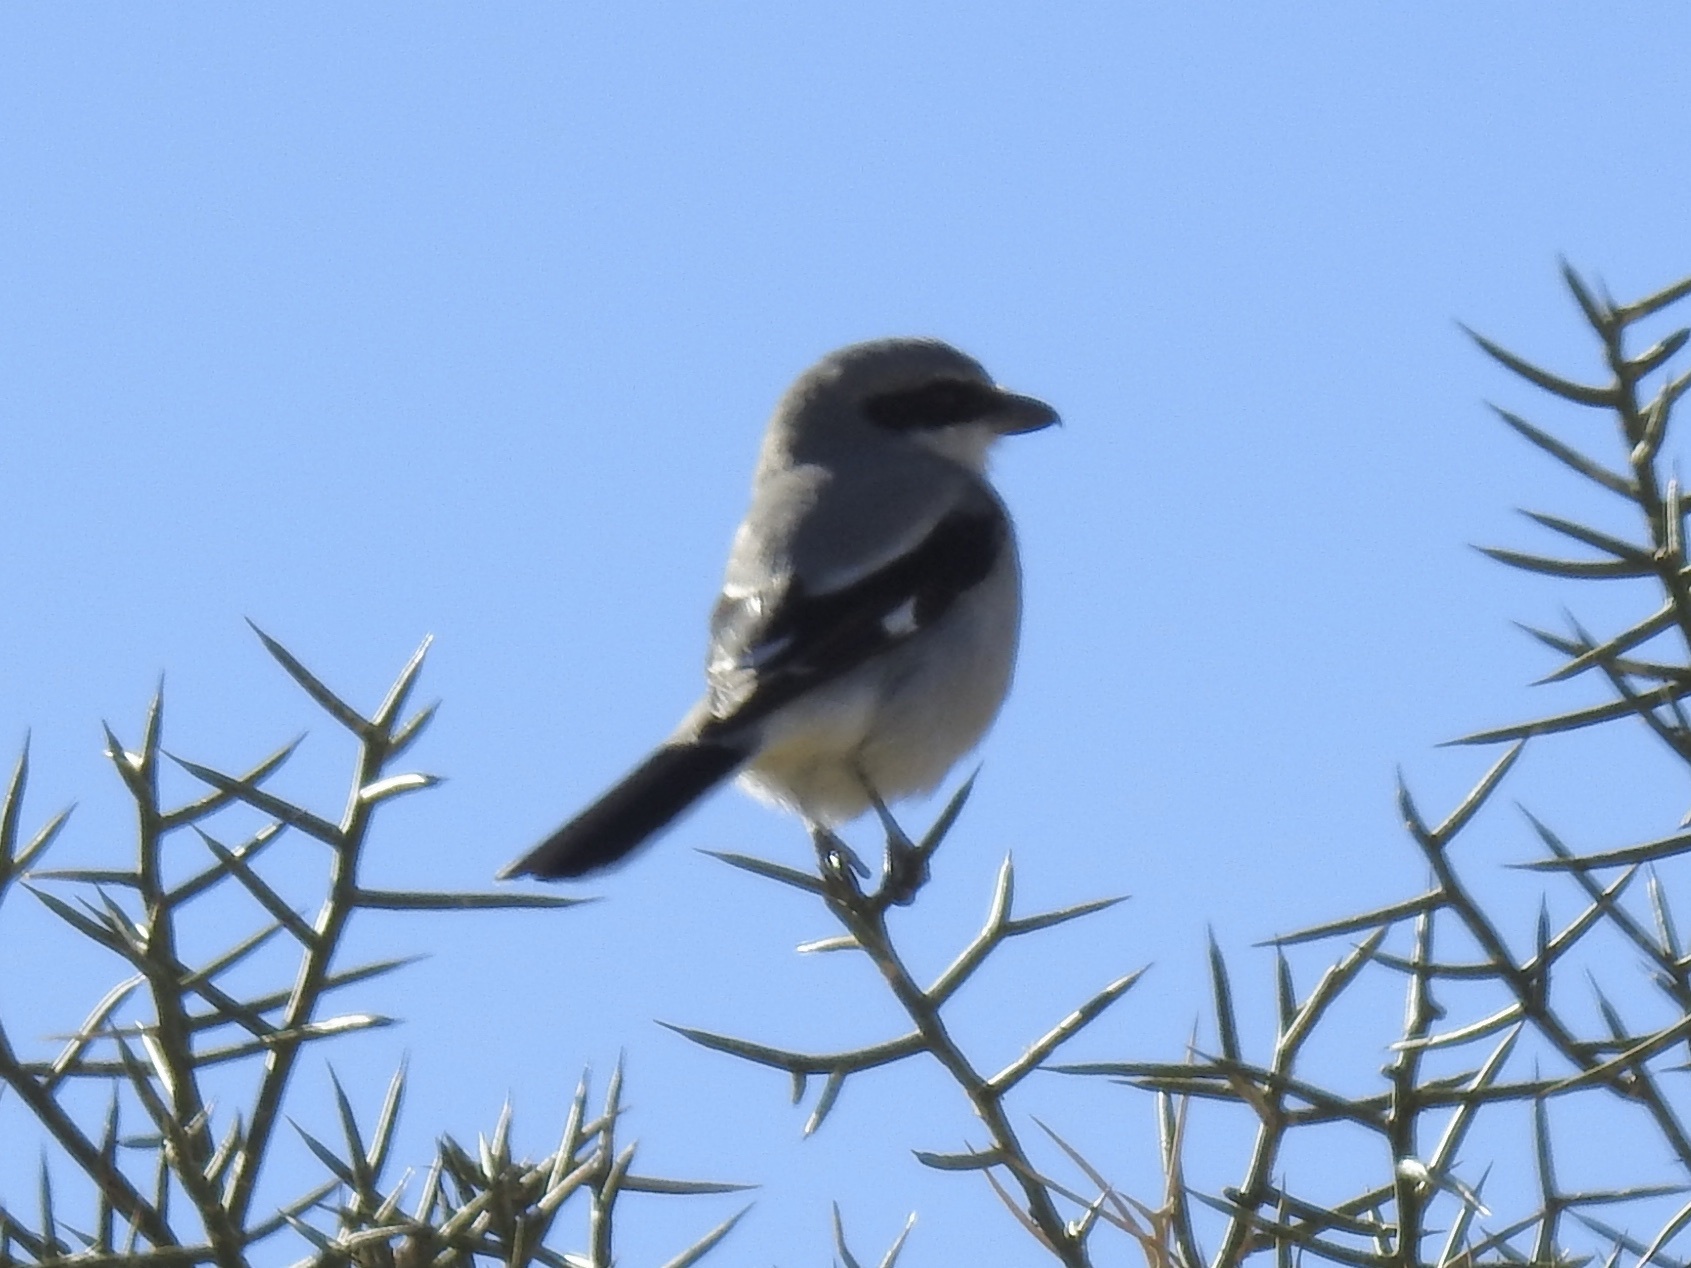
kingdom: Animalia
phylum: Chordata
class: Aves
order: Passeriformes
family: Laniidae
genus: Lanius
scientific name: Lanius ludovicianus
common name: Loggerhead shrike
